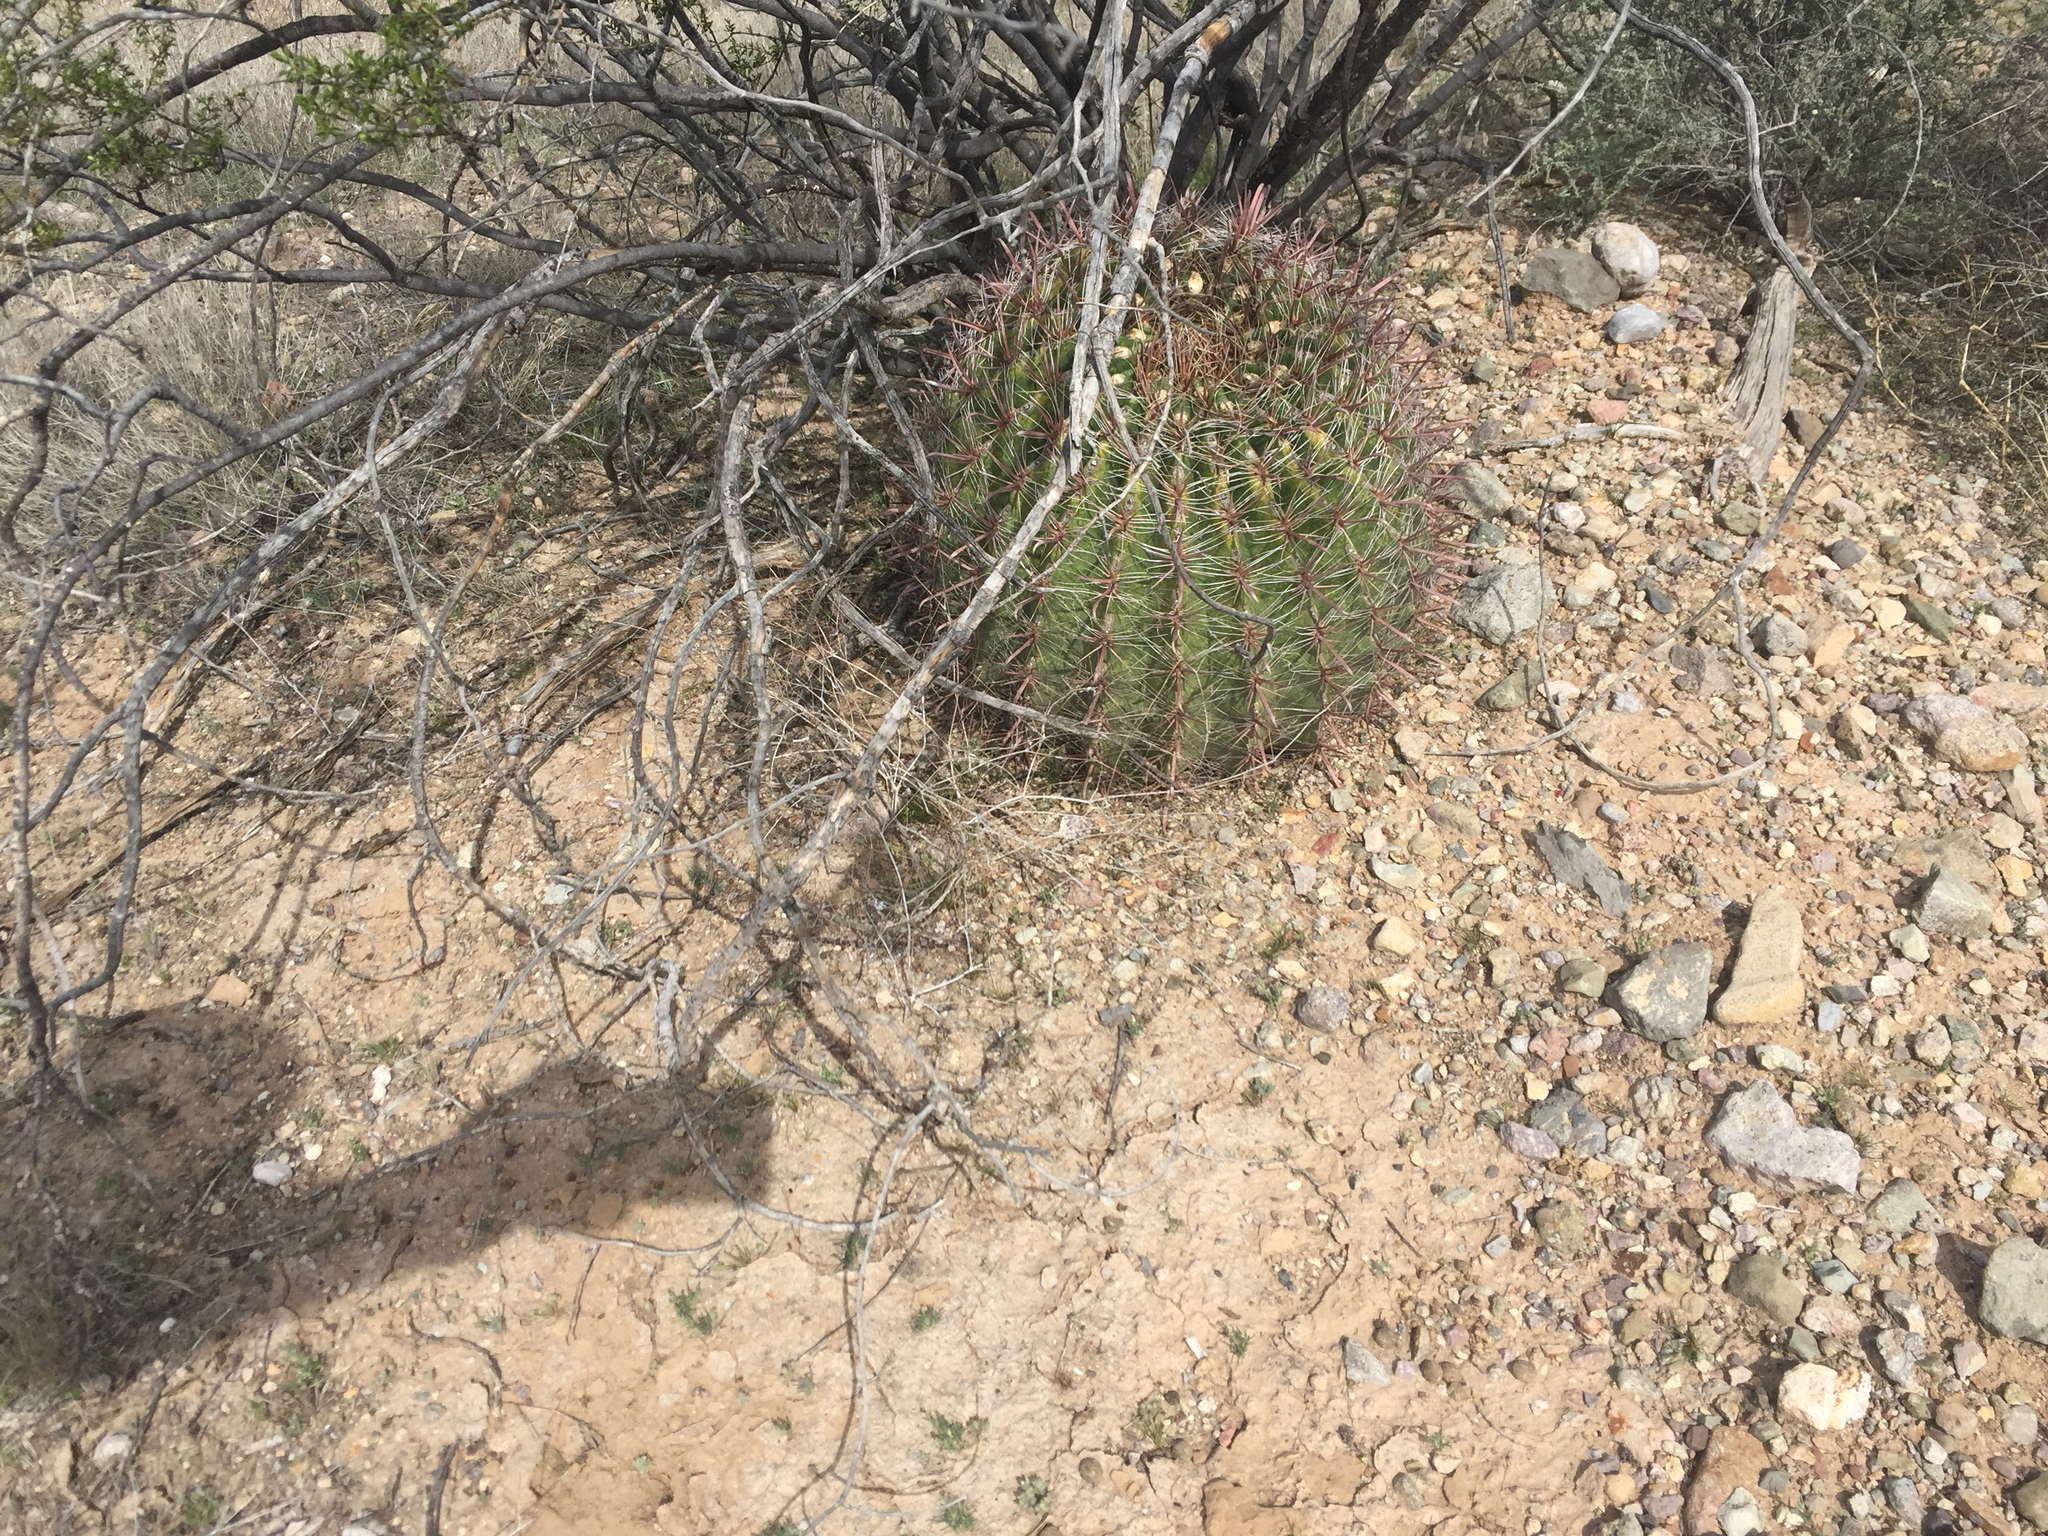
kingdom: Plantae
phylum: Tracheophyta
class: Magnoliopsida
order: Caryophyllales
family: Cactaceae
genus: Ferocactus
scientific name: Ferocactus wislizeni
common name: Candy barrel cactus
